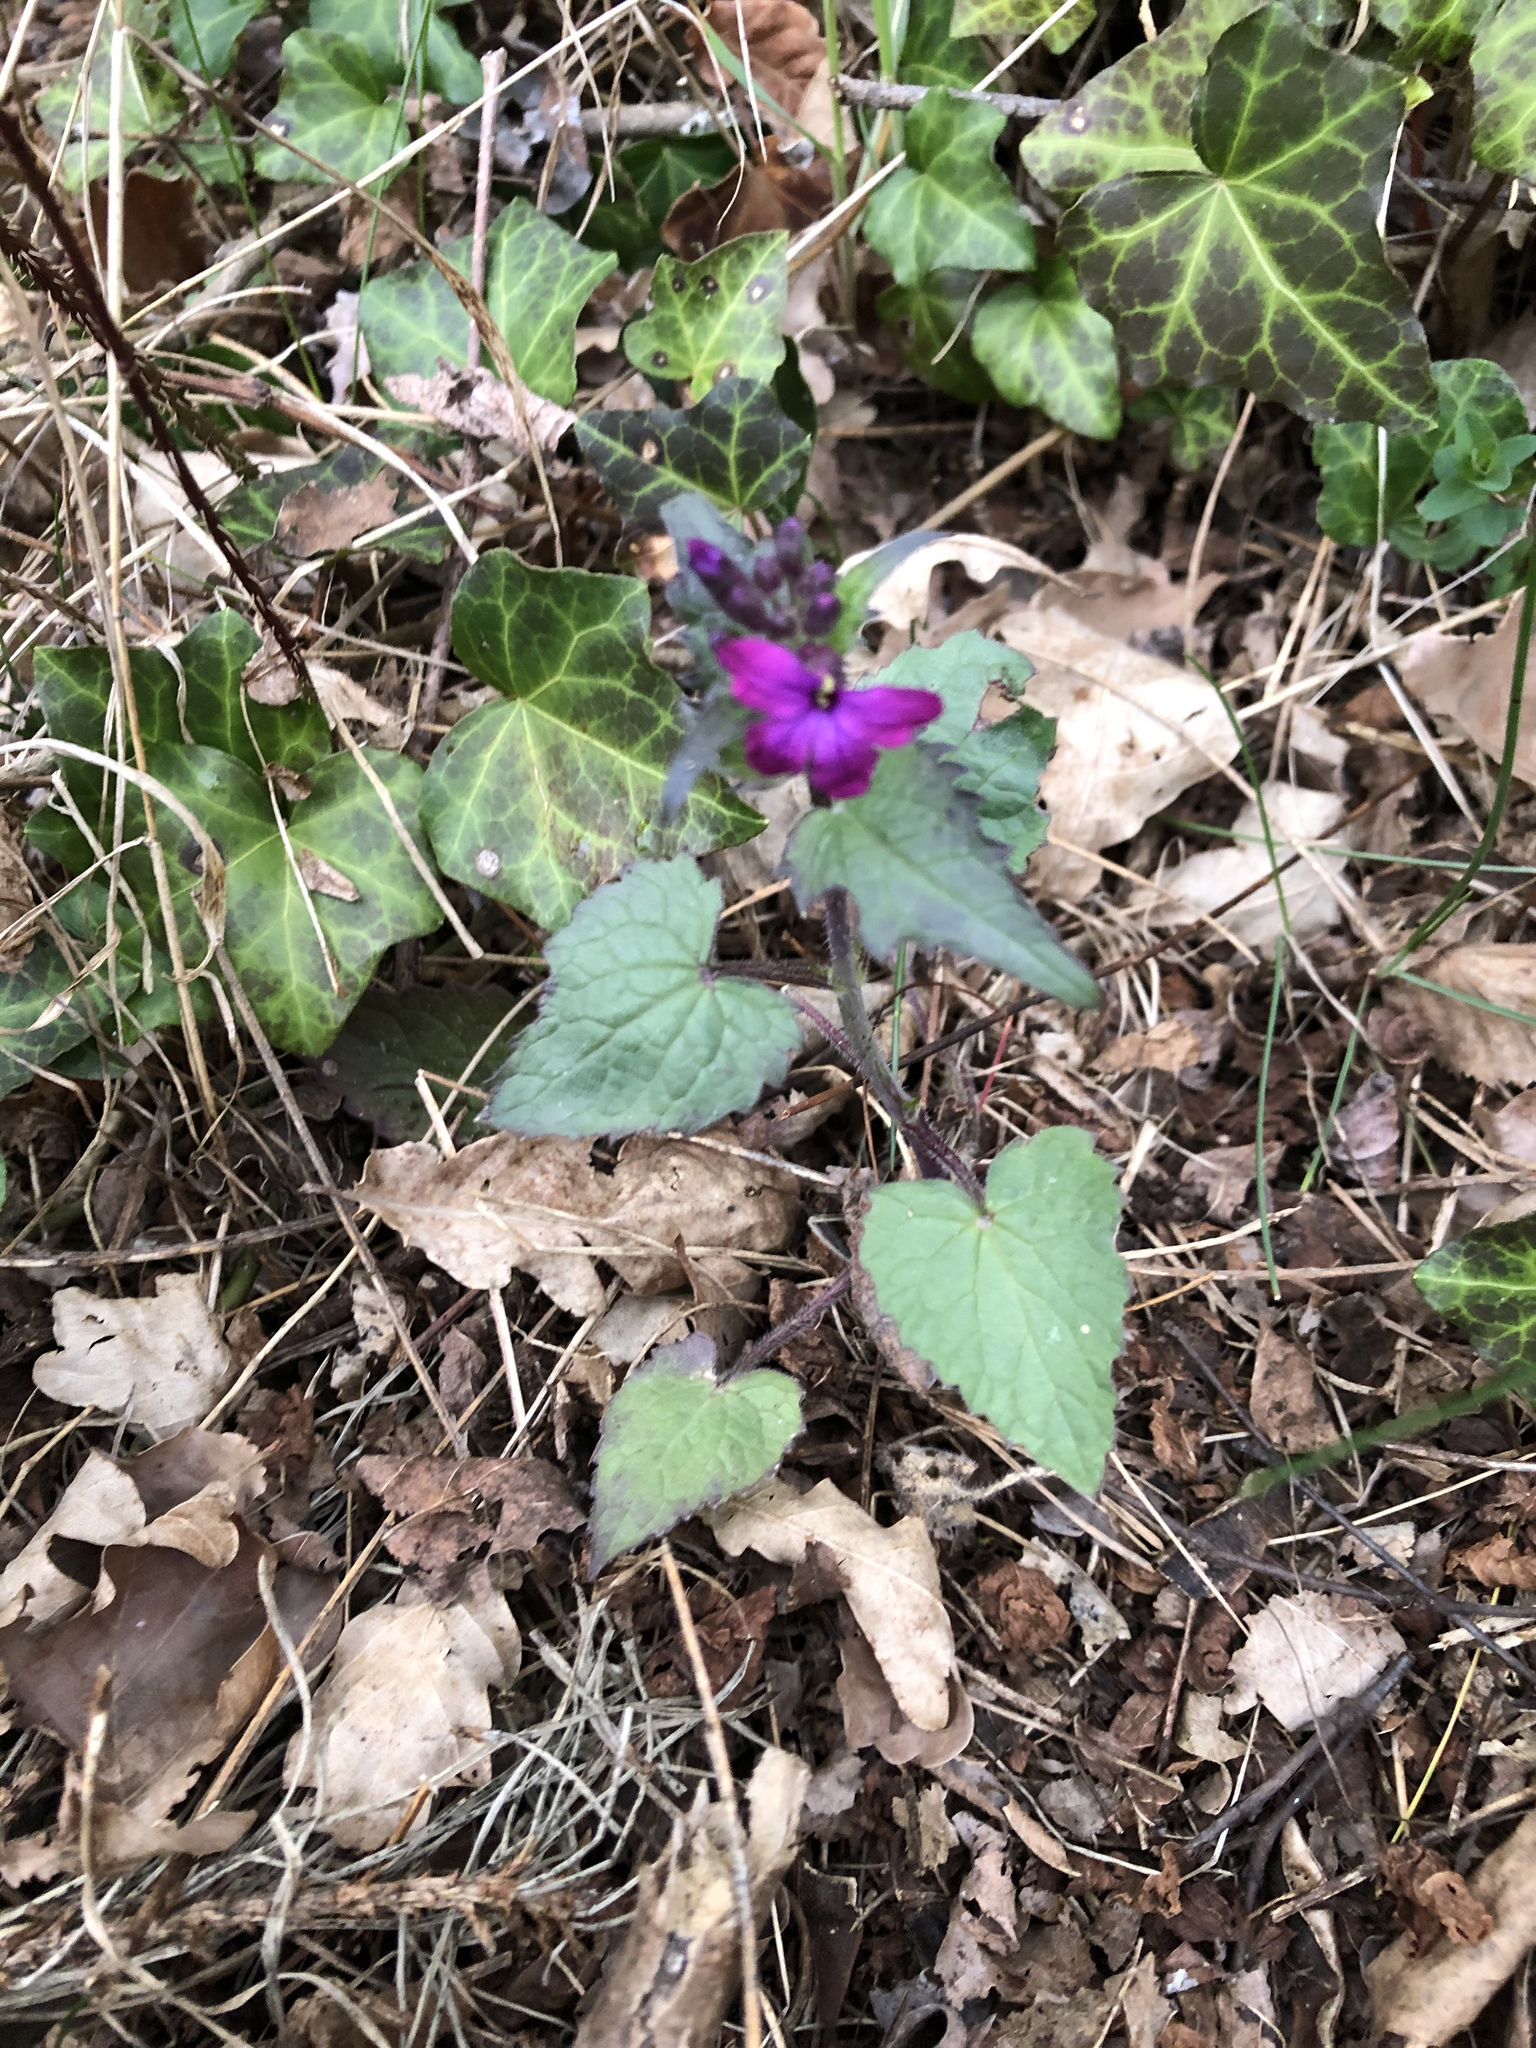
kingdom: Plantae
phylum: Tracheophyta
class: Magnoliopsida
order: Brassicales
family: Brassicaceae
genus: Lunaria
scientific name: Lunaria annua
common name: Honesty
